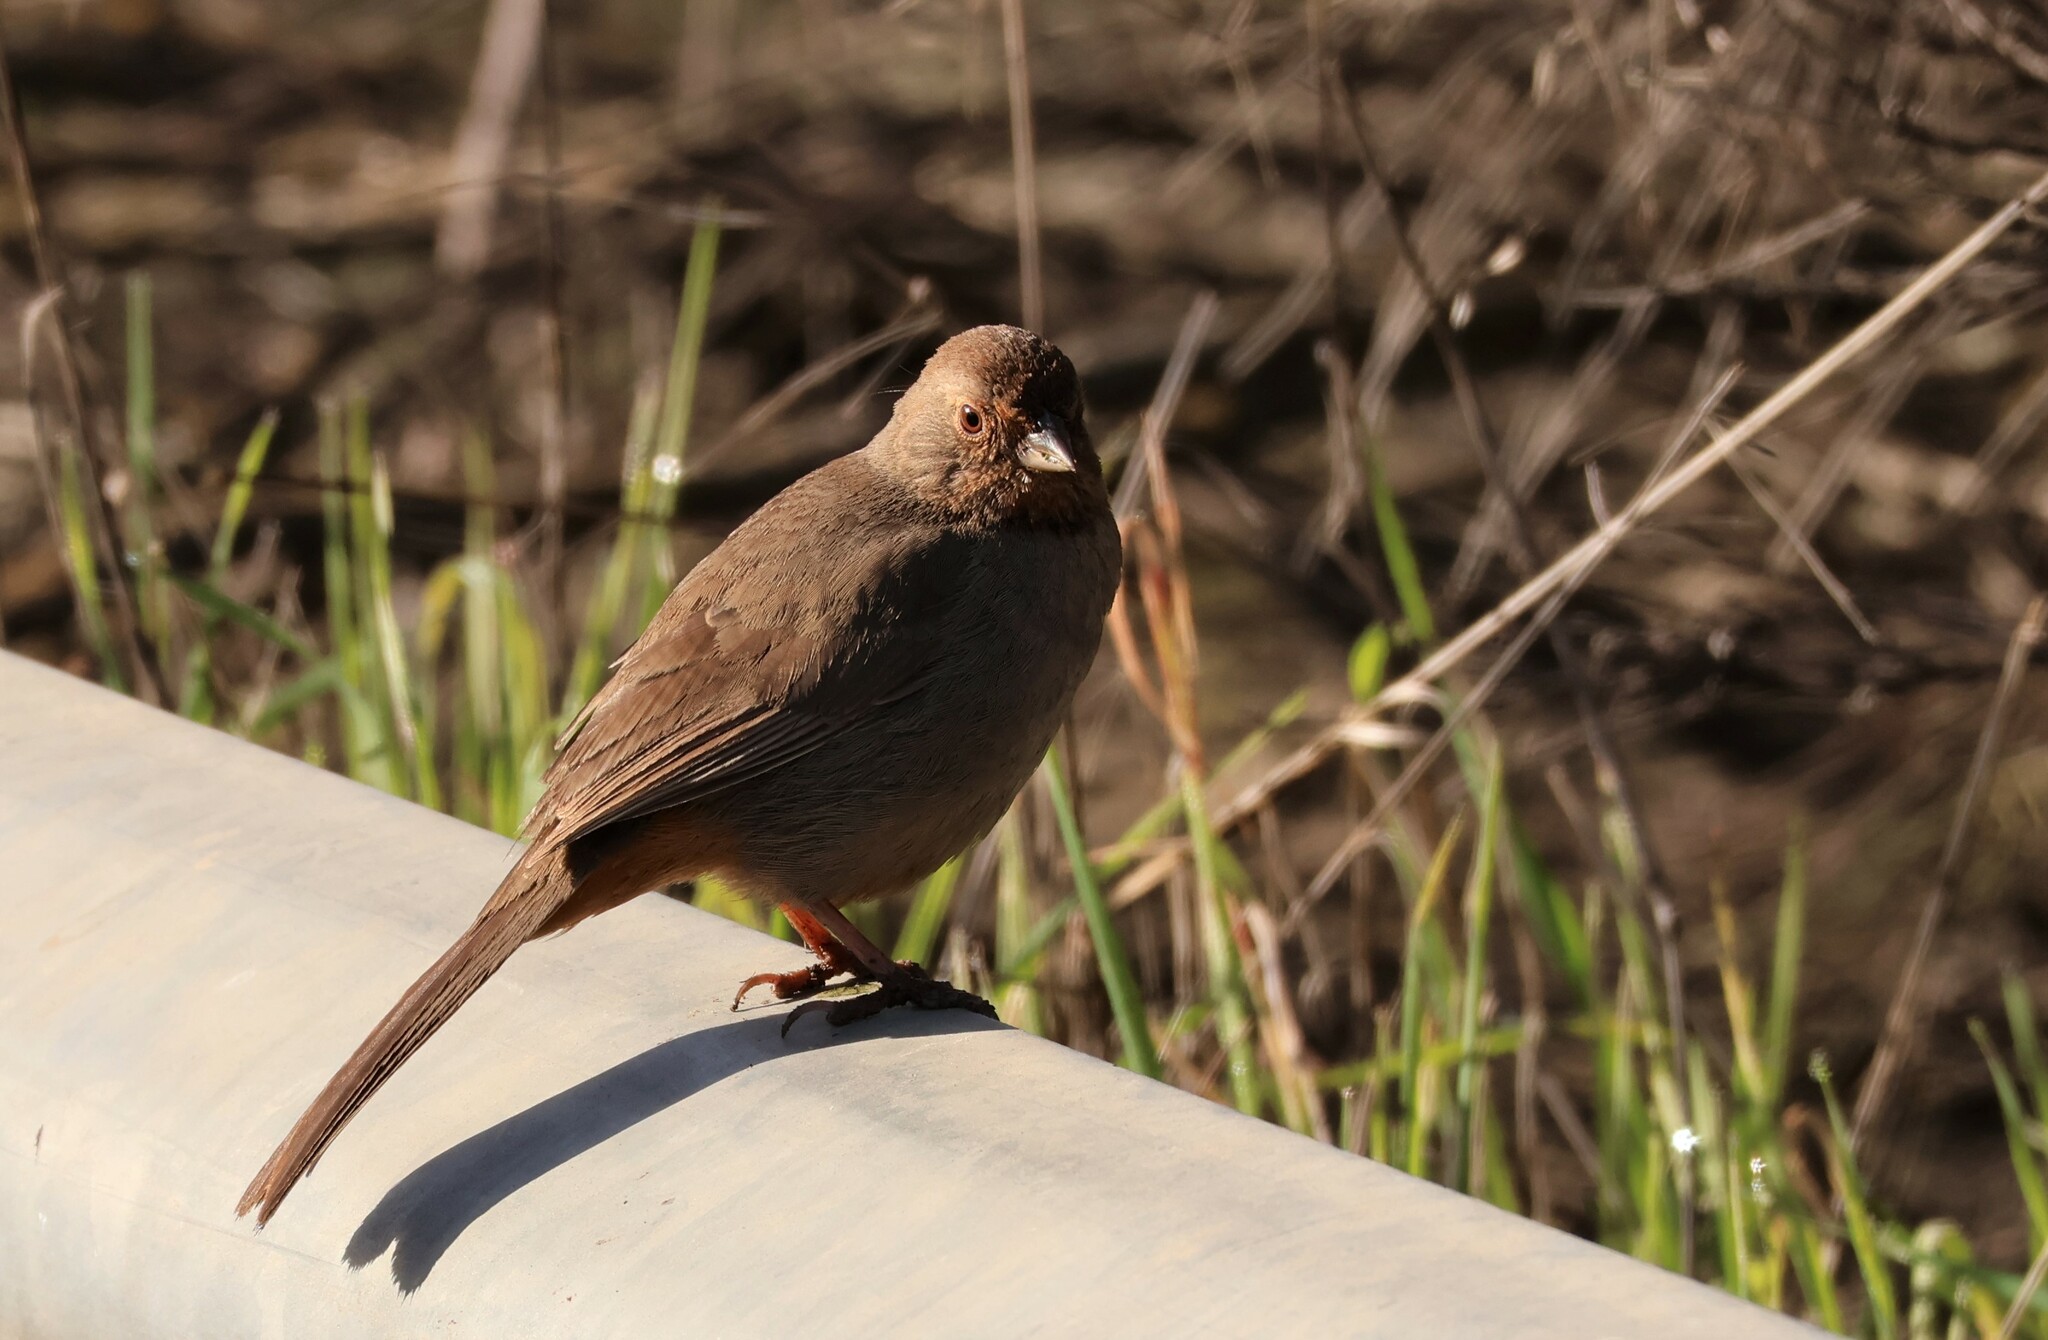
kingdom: Animalia
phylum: Chordata
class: Aves
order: Passeriformes
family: Passerellidae
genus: Melozone
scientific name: Melozone crissalis
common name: California towhee
